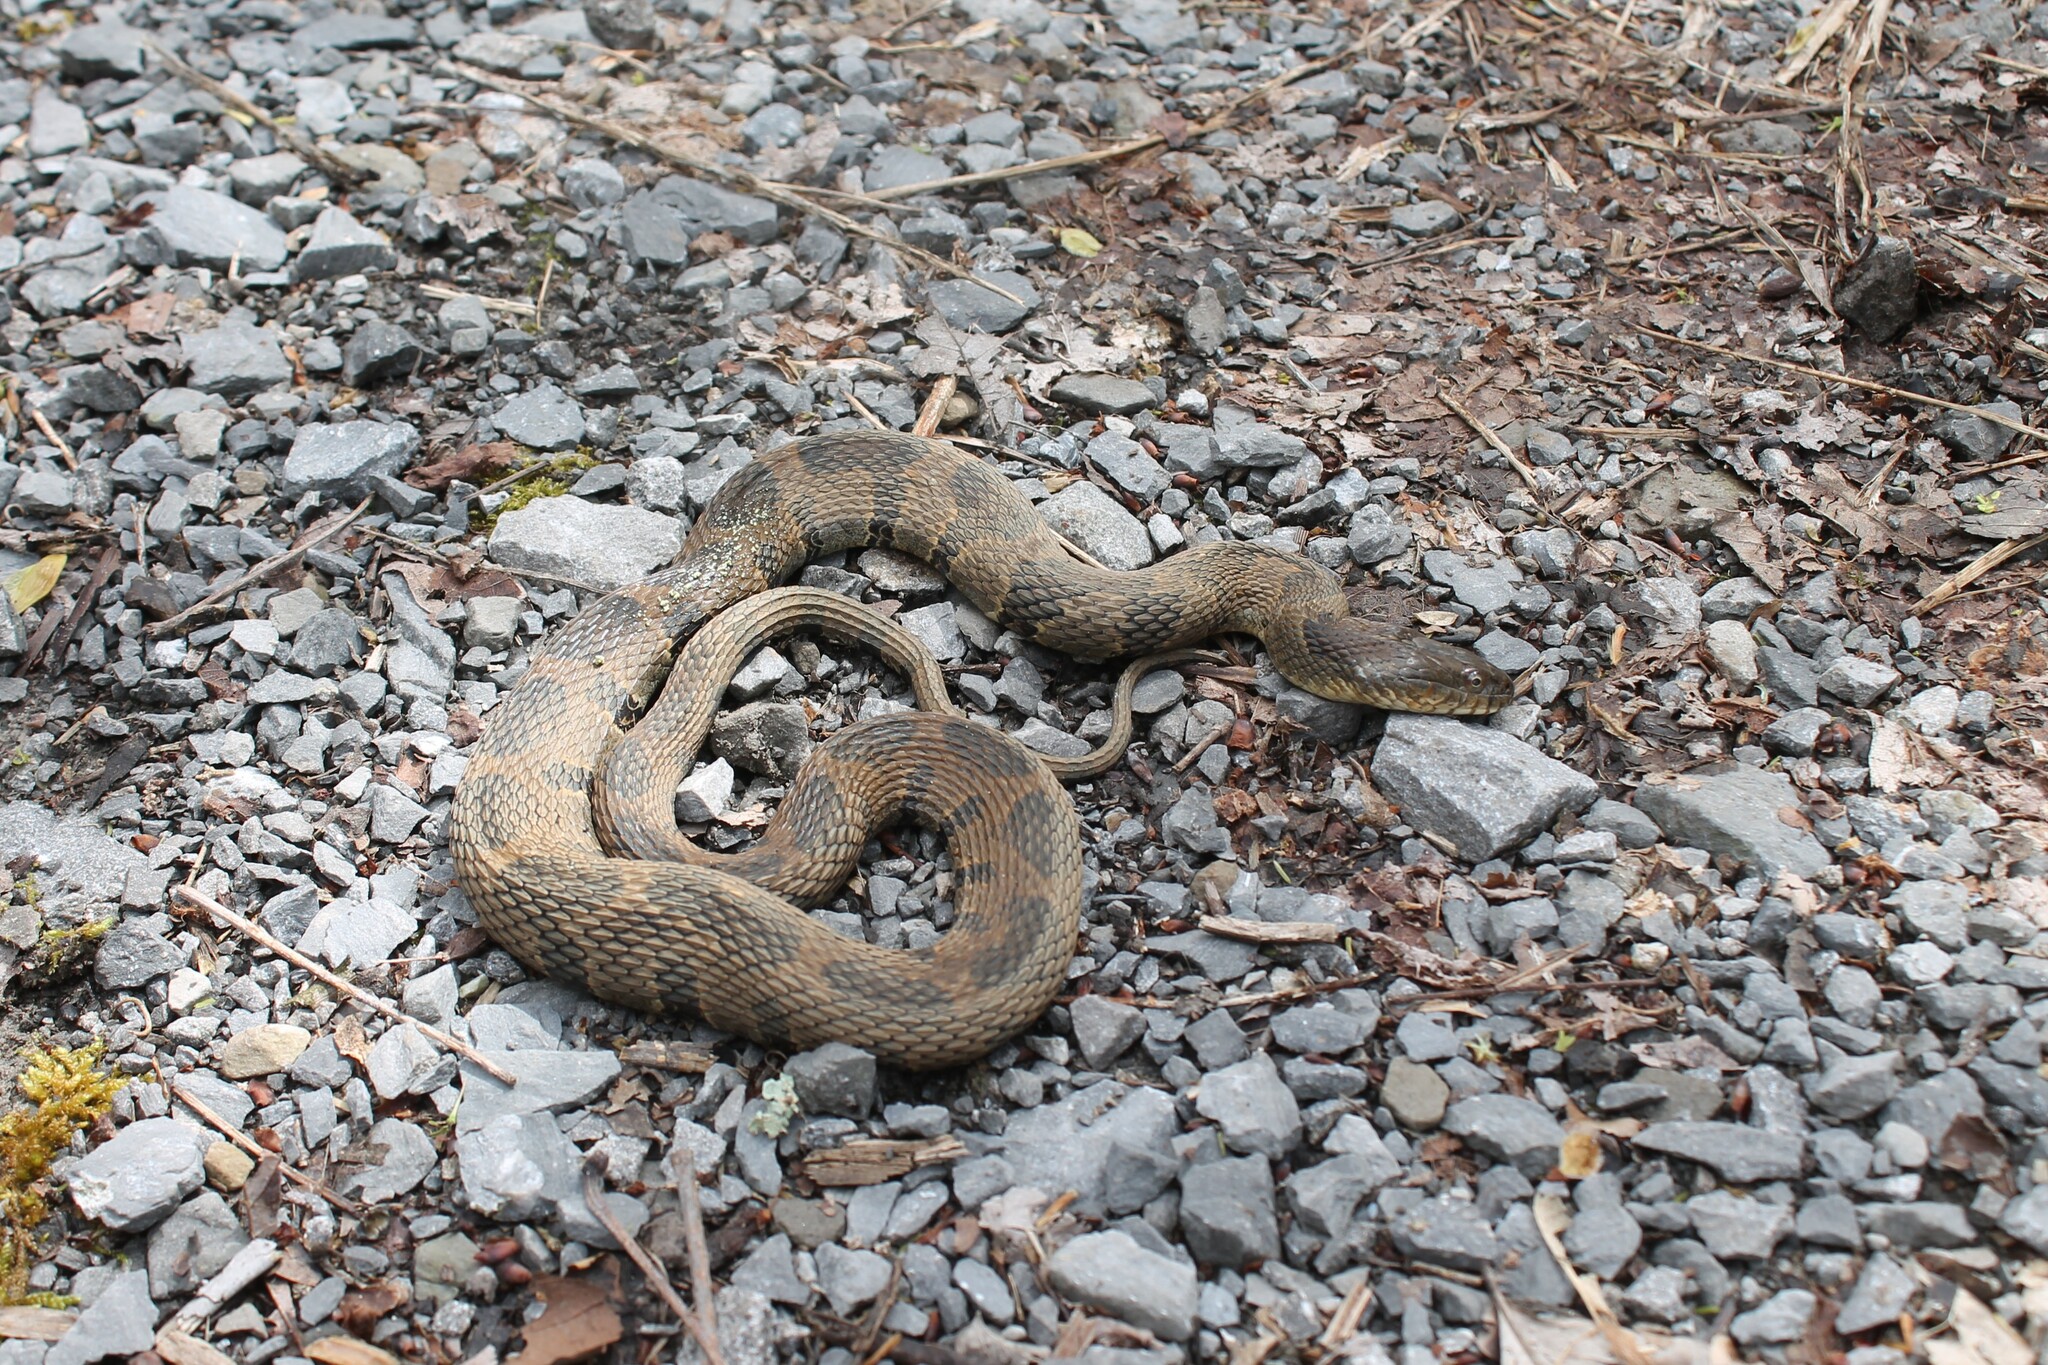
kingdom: Animalia
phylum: Chordata
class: Squamata
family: Colubridae
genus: Nerodia
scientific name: Nerodia sipedon
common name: Northern water snake
